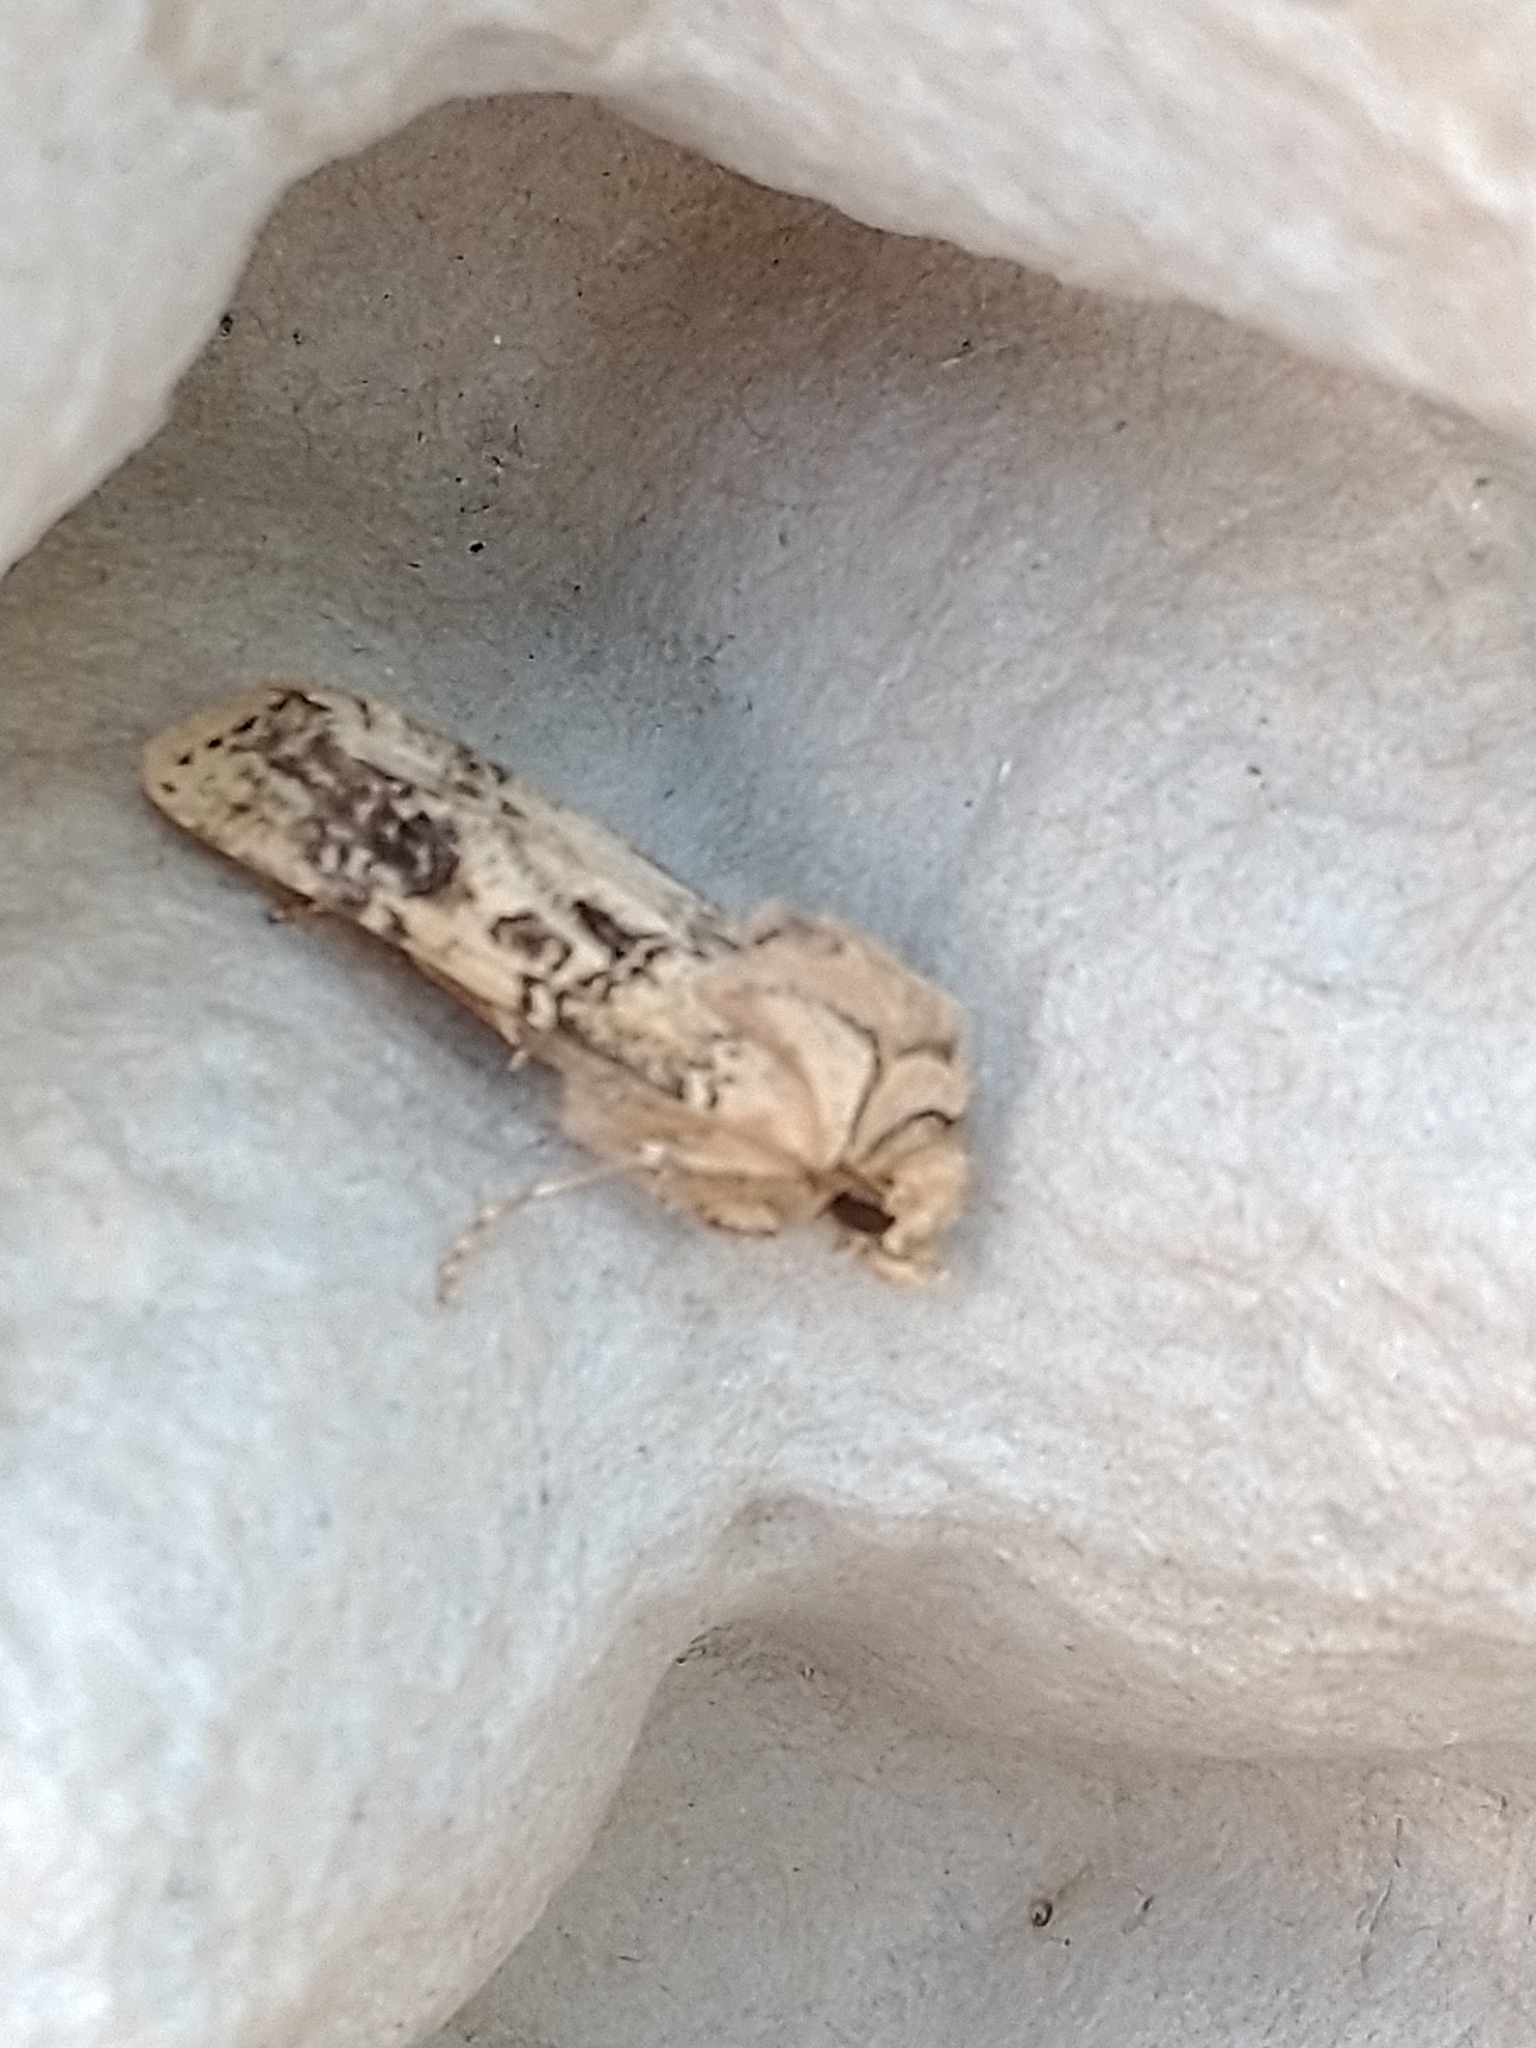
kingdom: Animalia
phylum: Arthropoda
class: Insecta
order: Lepidoptera
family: Noctuidae
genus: Agrotis
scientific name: Agrotis clavis
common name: Heart and club
